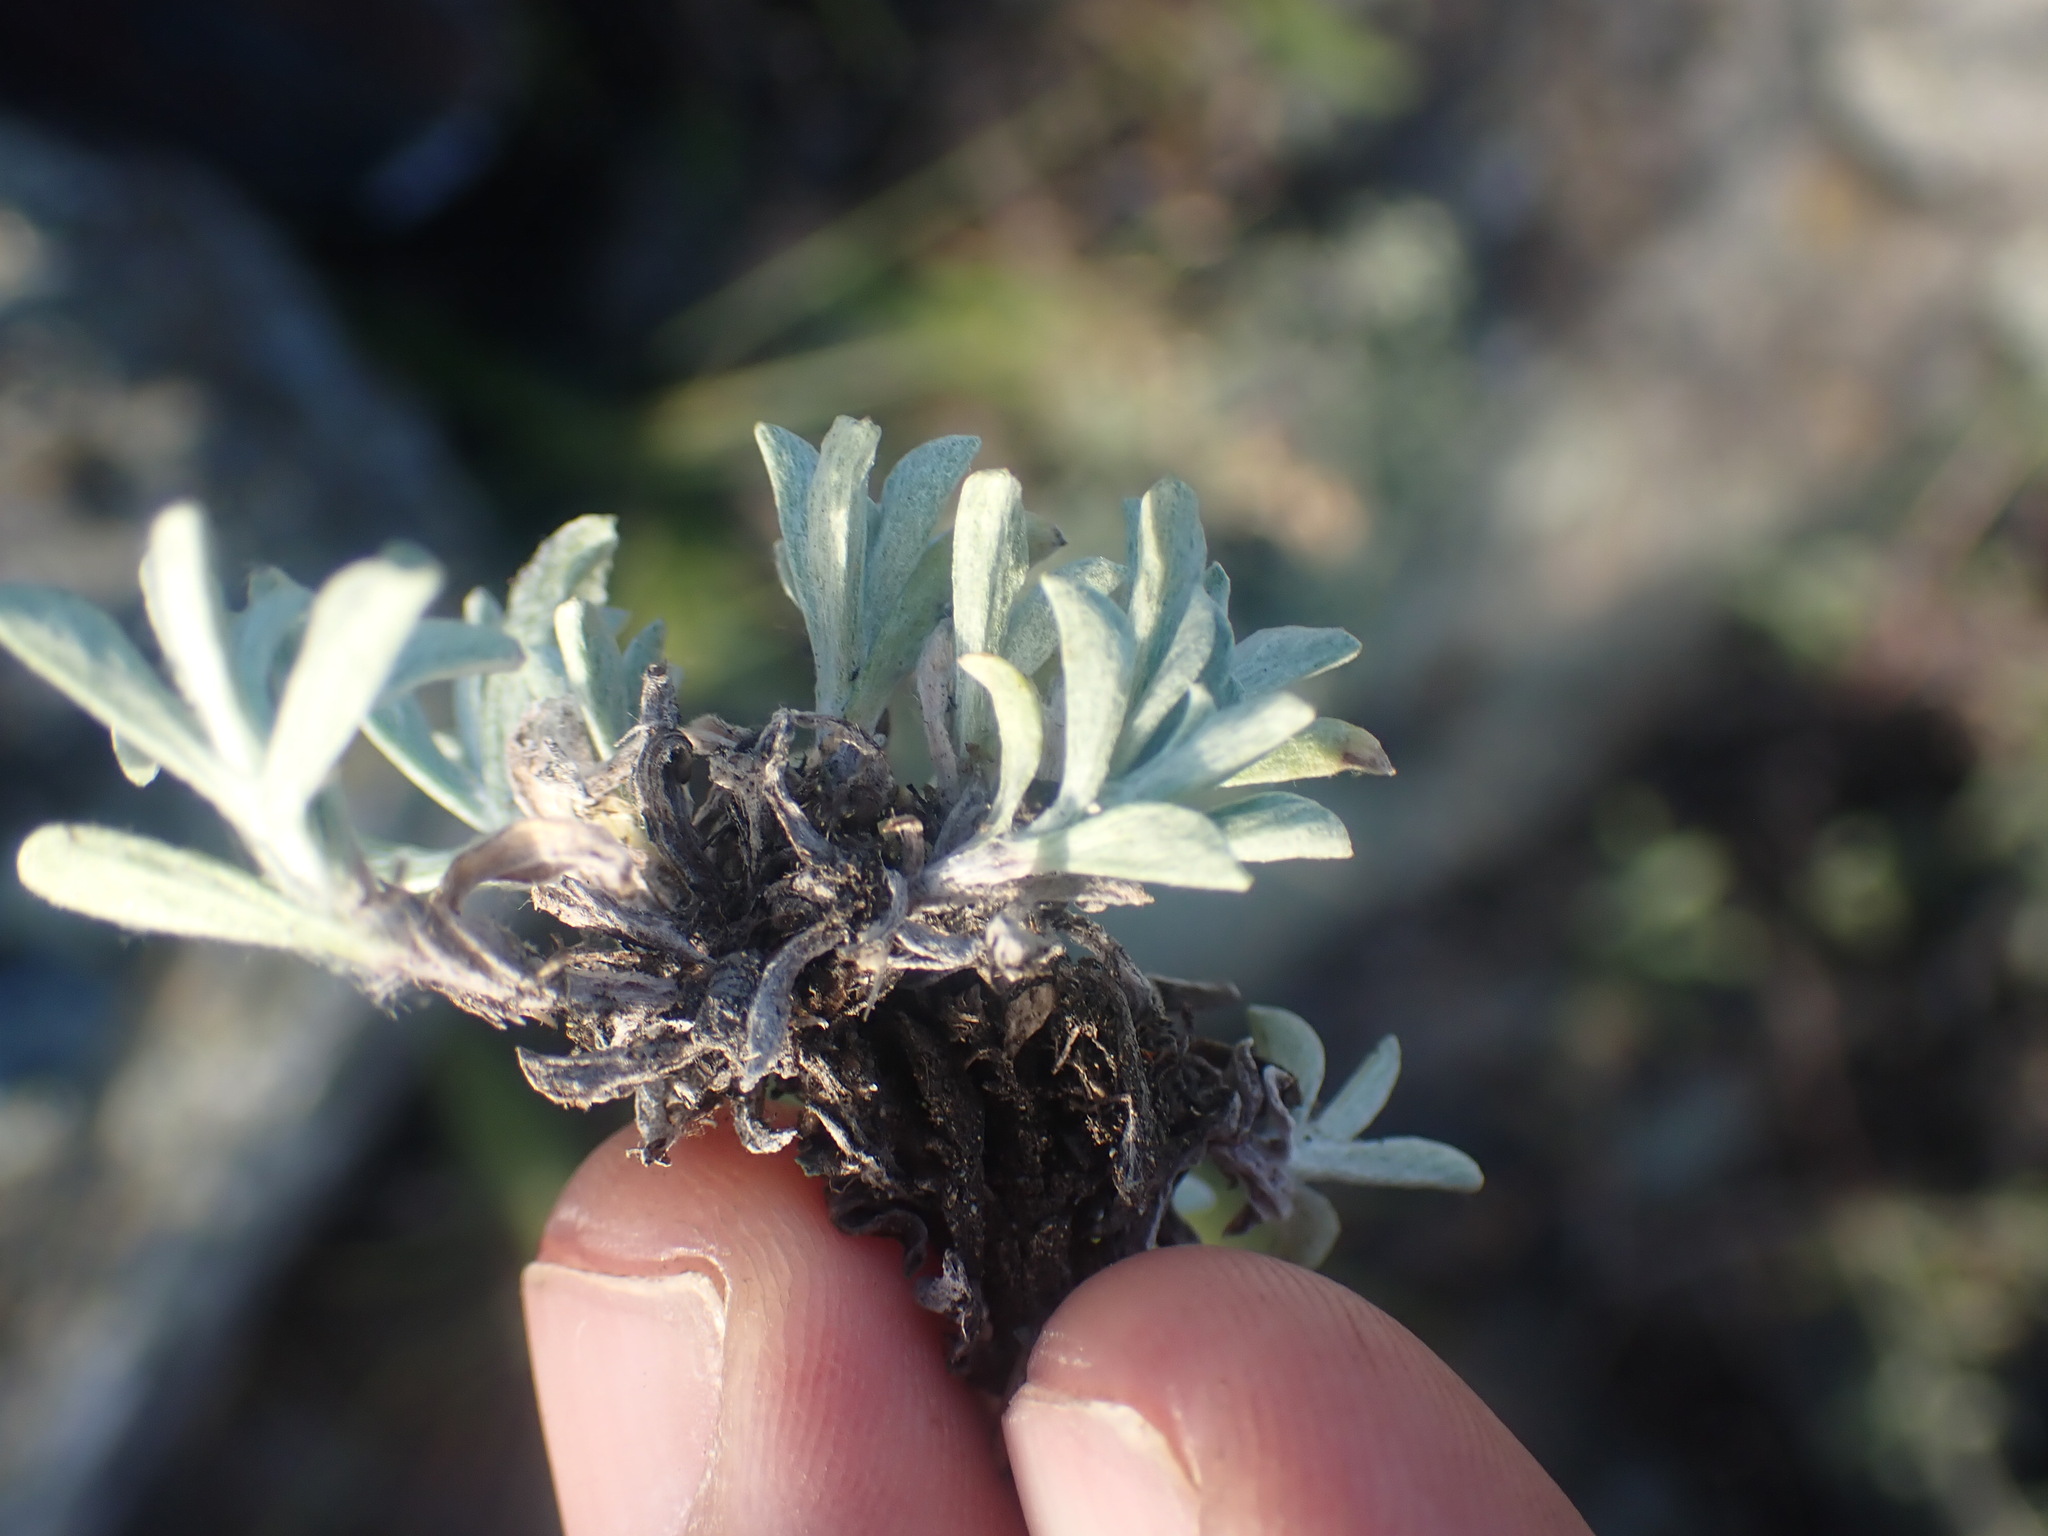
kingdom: Plantae
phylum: Tracheophyta
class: Magnoliopsida
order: Asterales
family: Asteraceae
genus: Antennaria
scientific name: Antennaria dimorpha
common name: Cushion pussytoes
